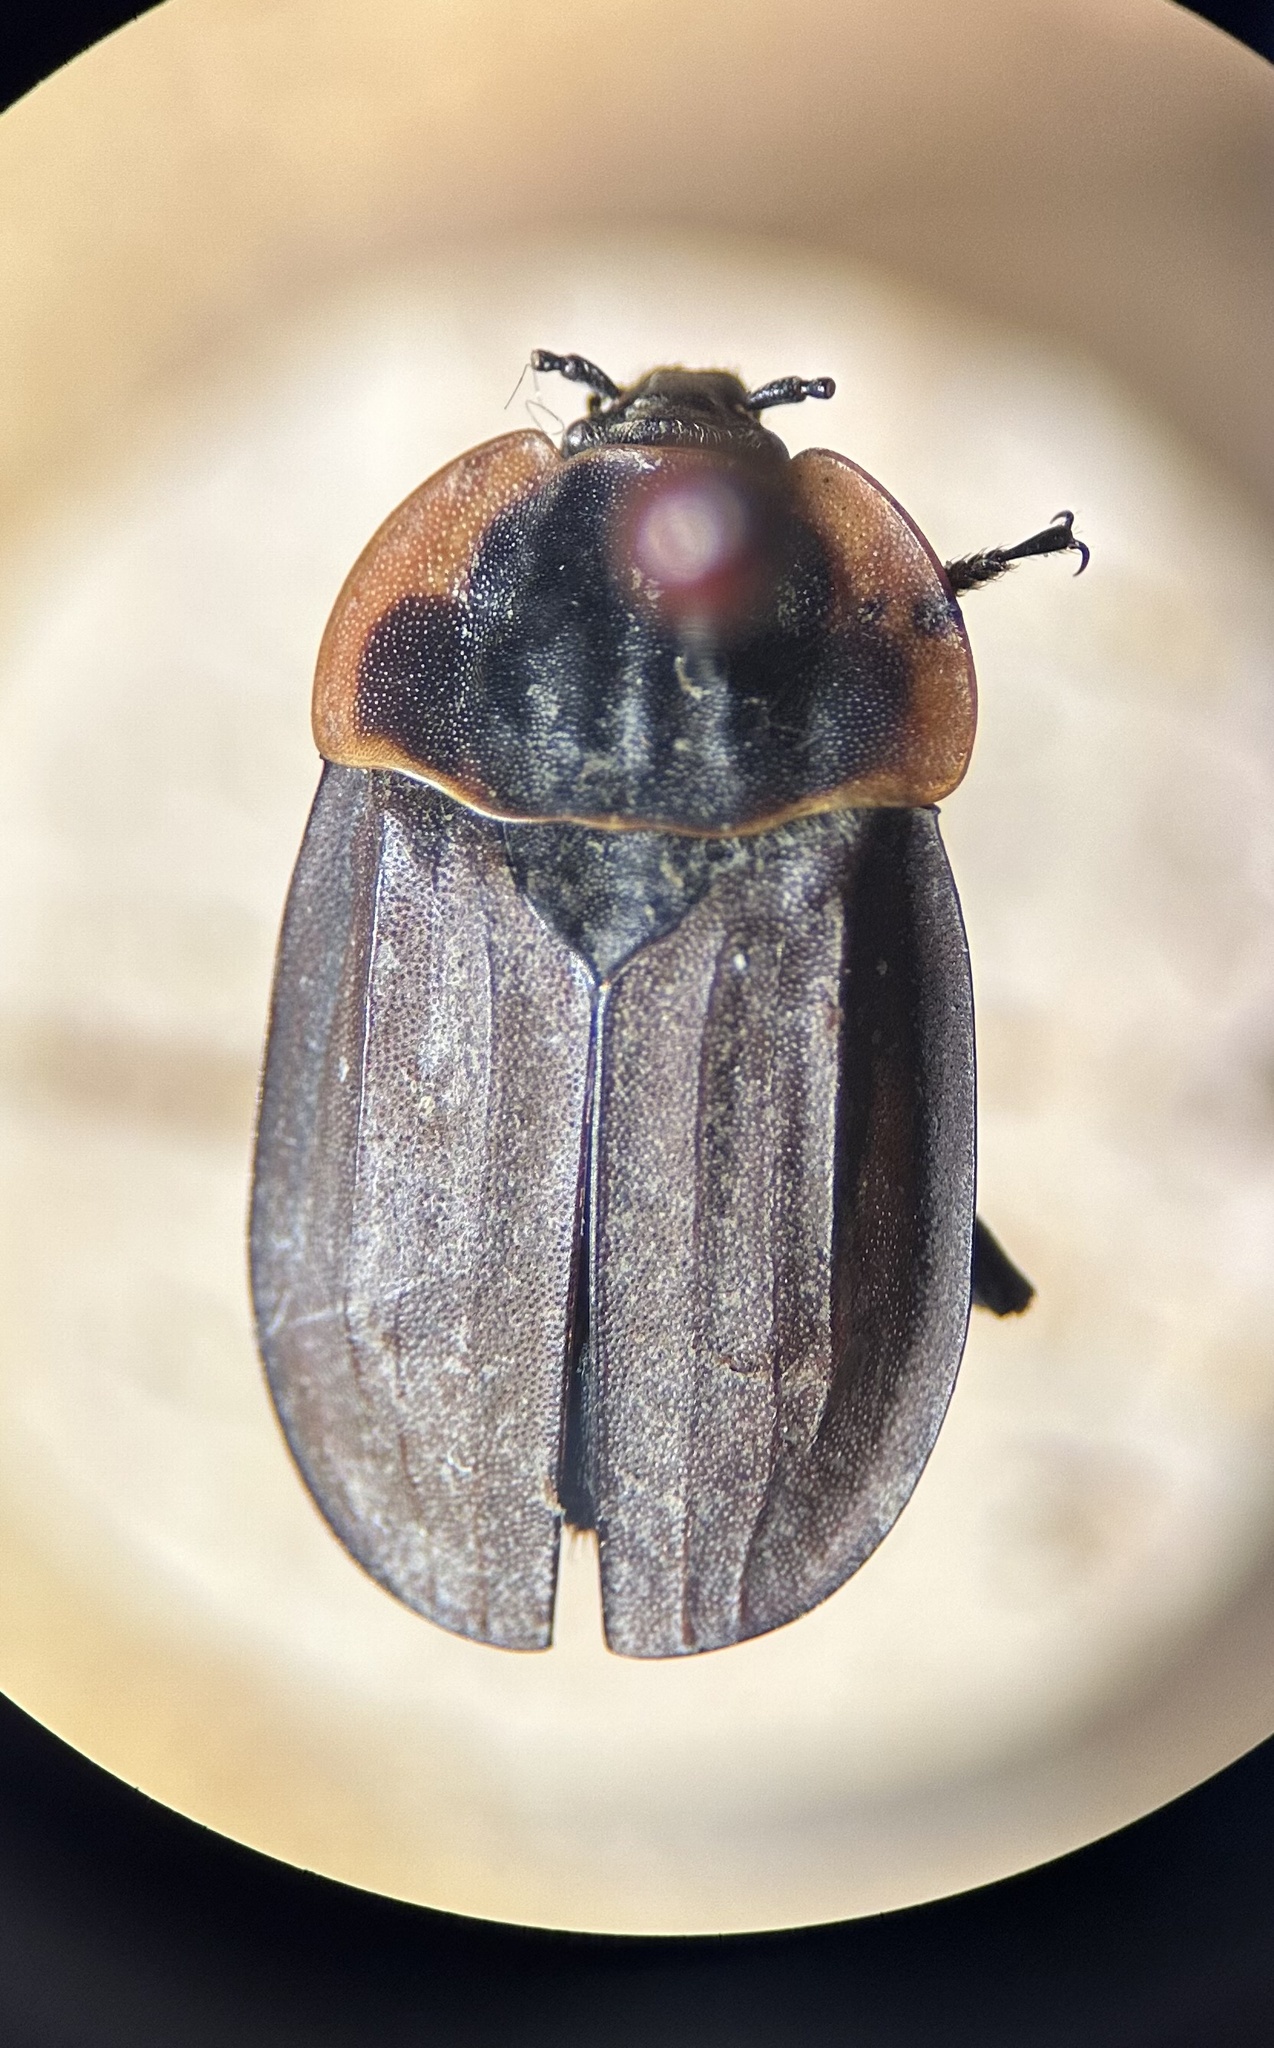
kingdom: Animalia
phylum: Arthropoda
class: Insecta
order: Coleoptera
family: Staphylinidae
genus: Oiceoptoma
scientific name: Oiceoptoma noveboracense
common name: Margined carrion beetle
